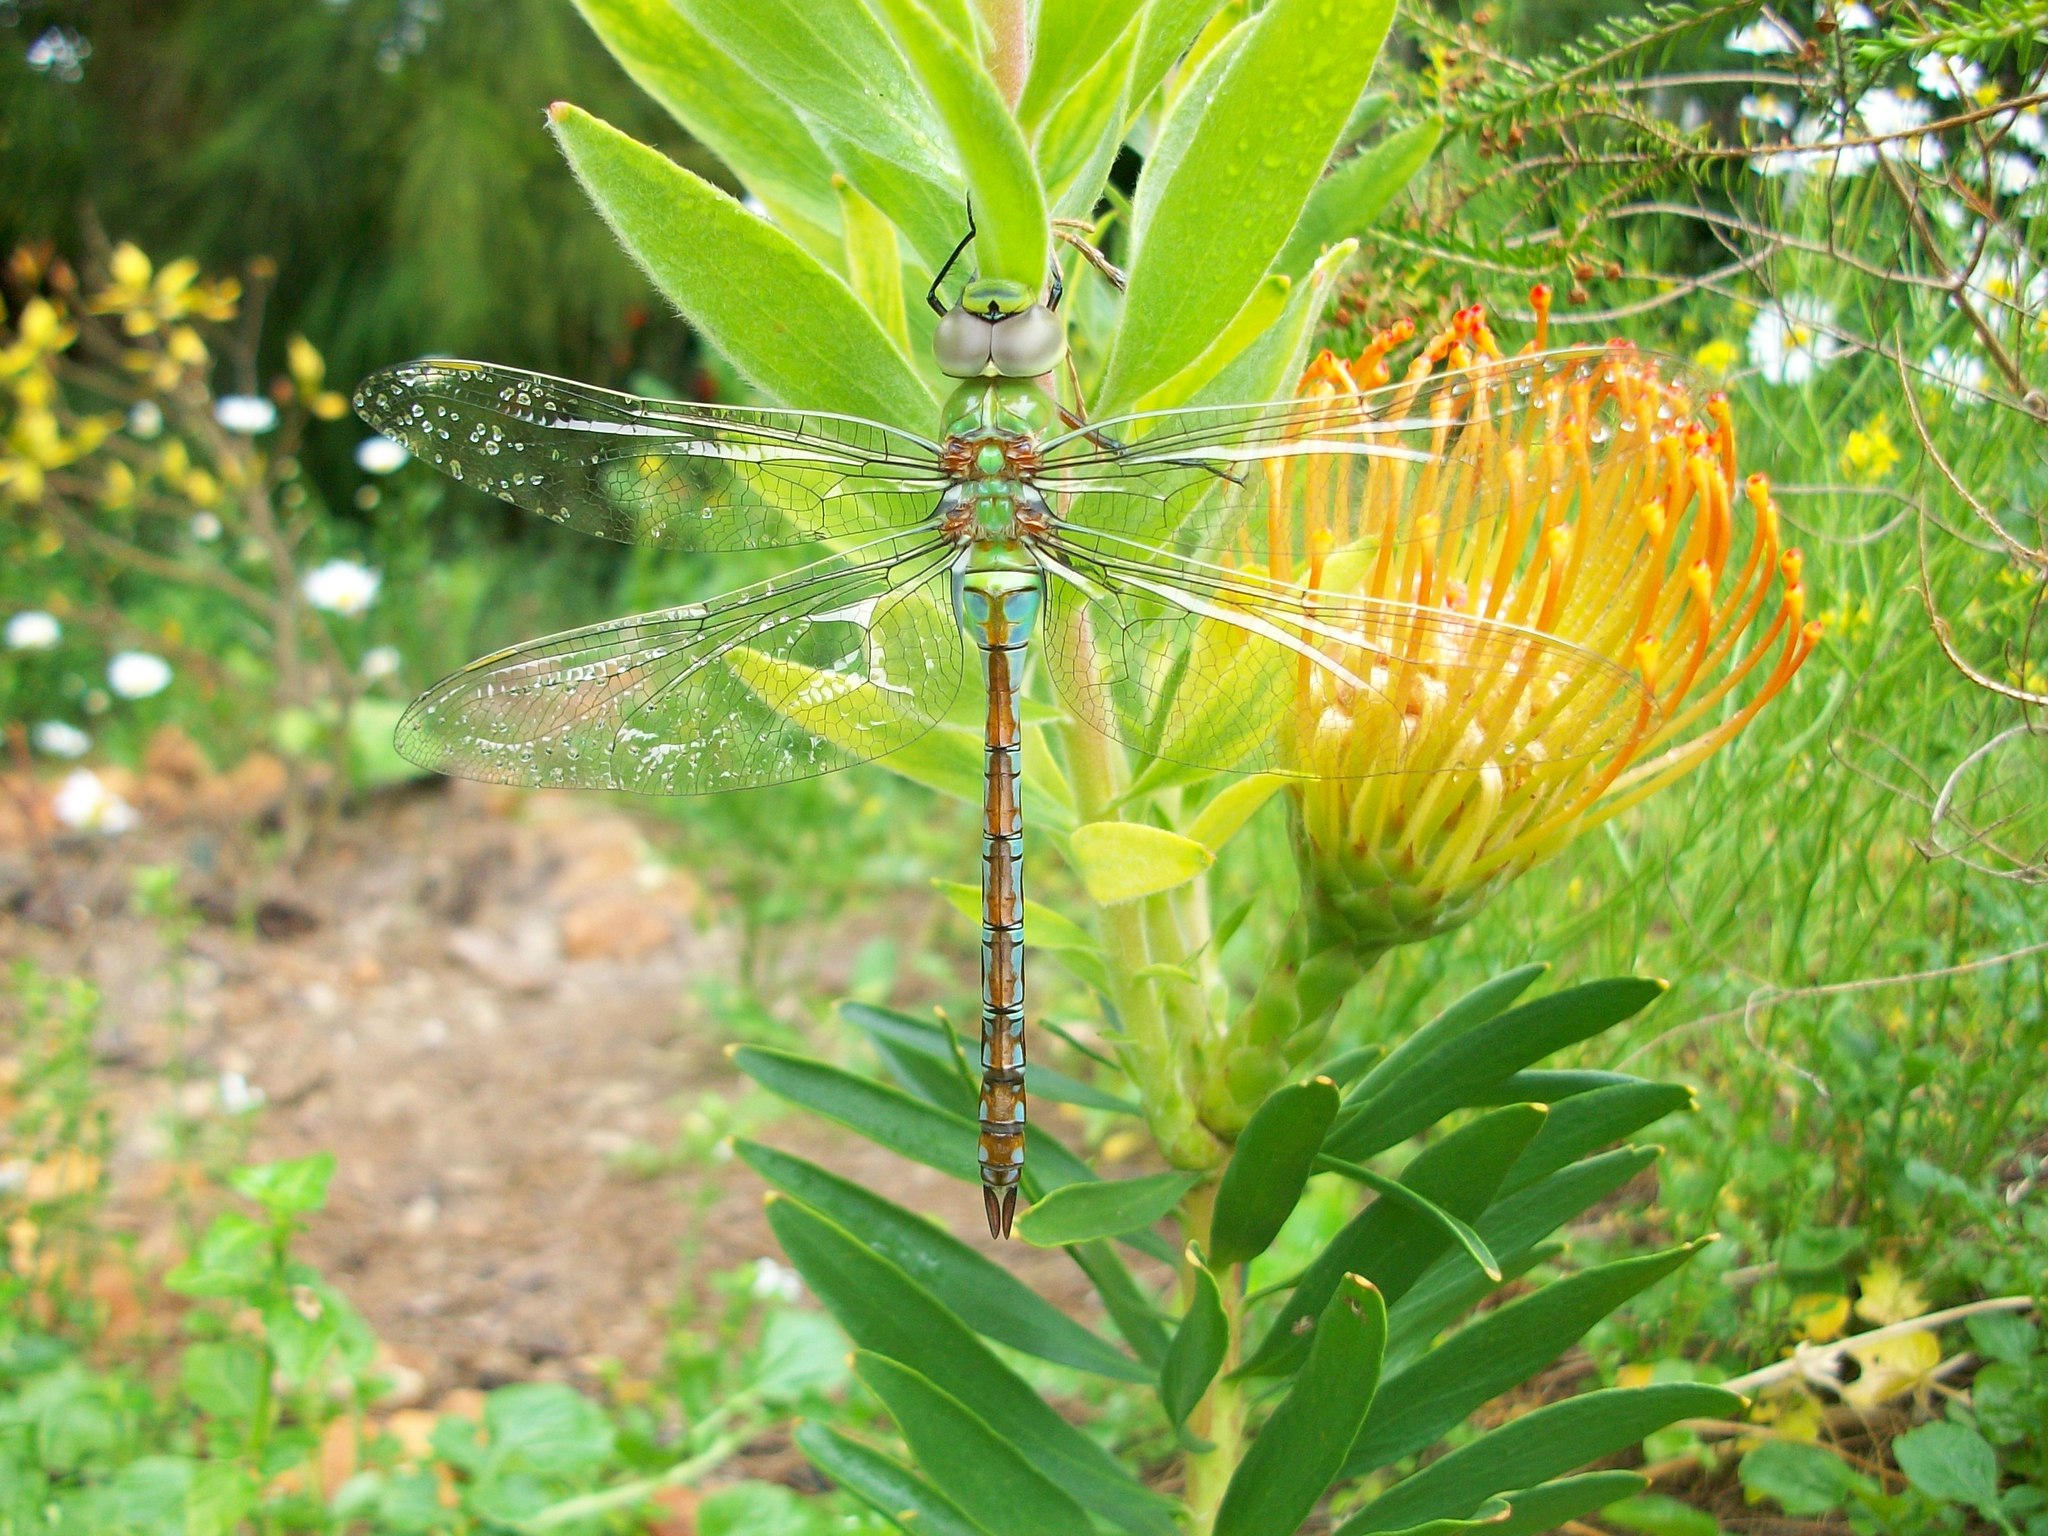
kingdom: Animalia
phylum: Arthropoda
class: Insecta
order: Odonata
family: Aeshnidae
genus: Anax
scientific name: Anax imperator
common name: Emperor dragonfly
